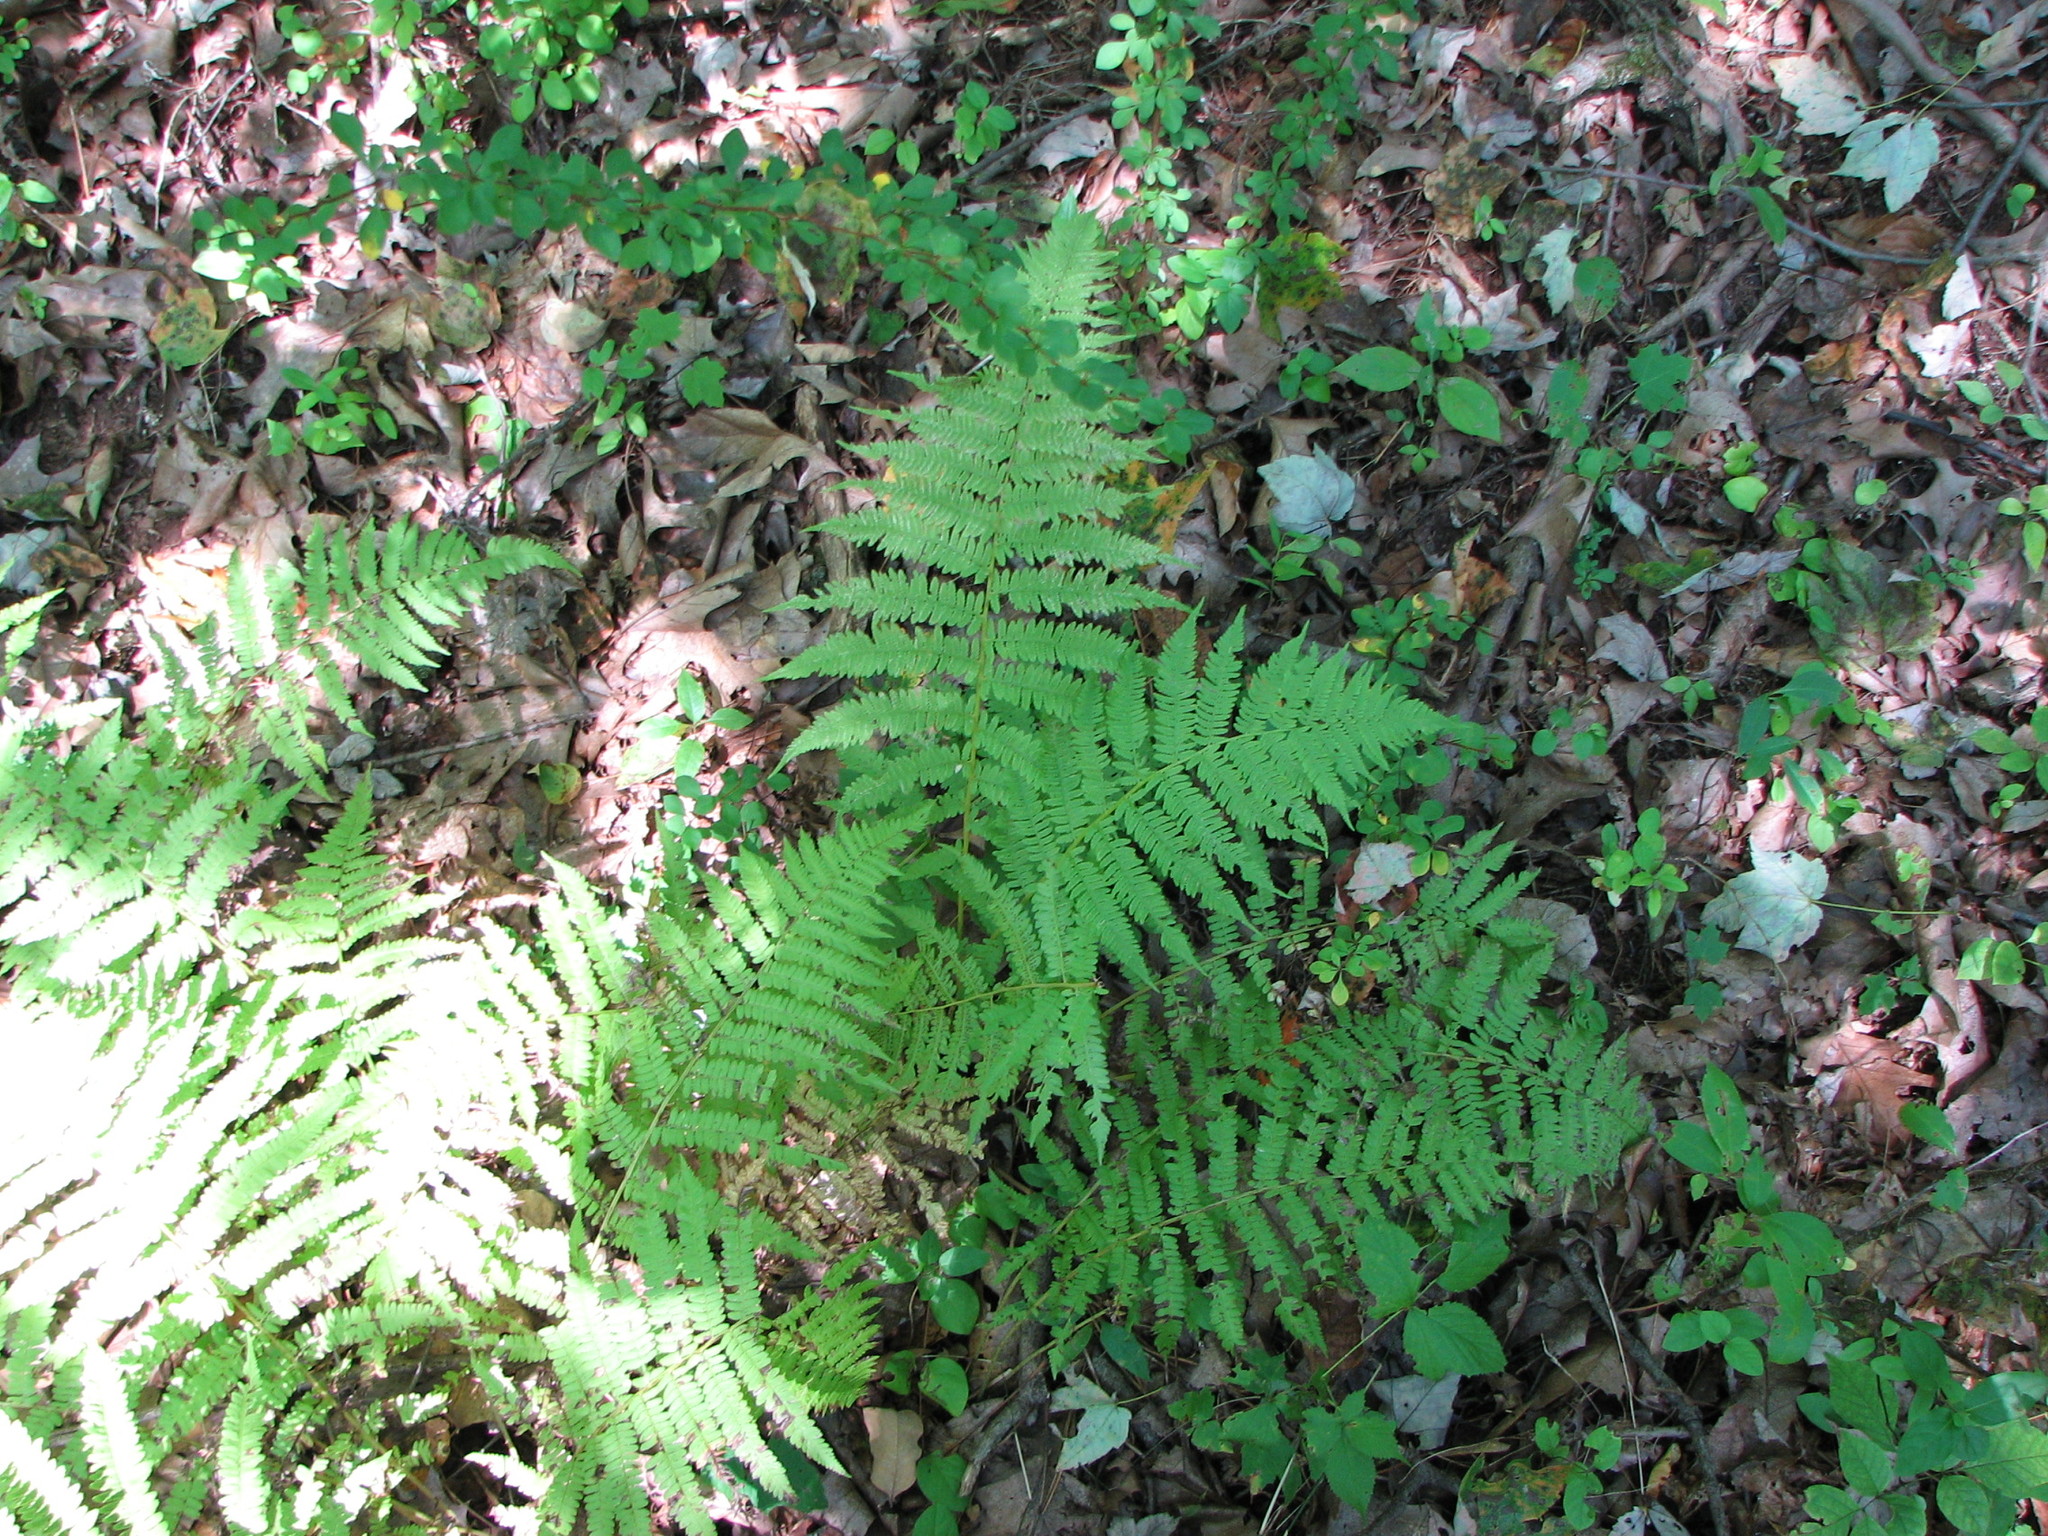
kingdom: Plantae
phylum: Tracheophyta
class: Polypodiopsida
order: Polypodiales
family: Athyriaceae
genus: Athyrium
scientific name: Athyrium angustum
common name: Northern lady fern
